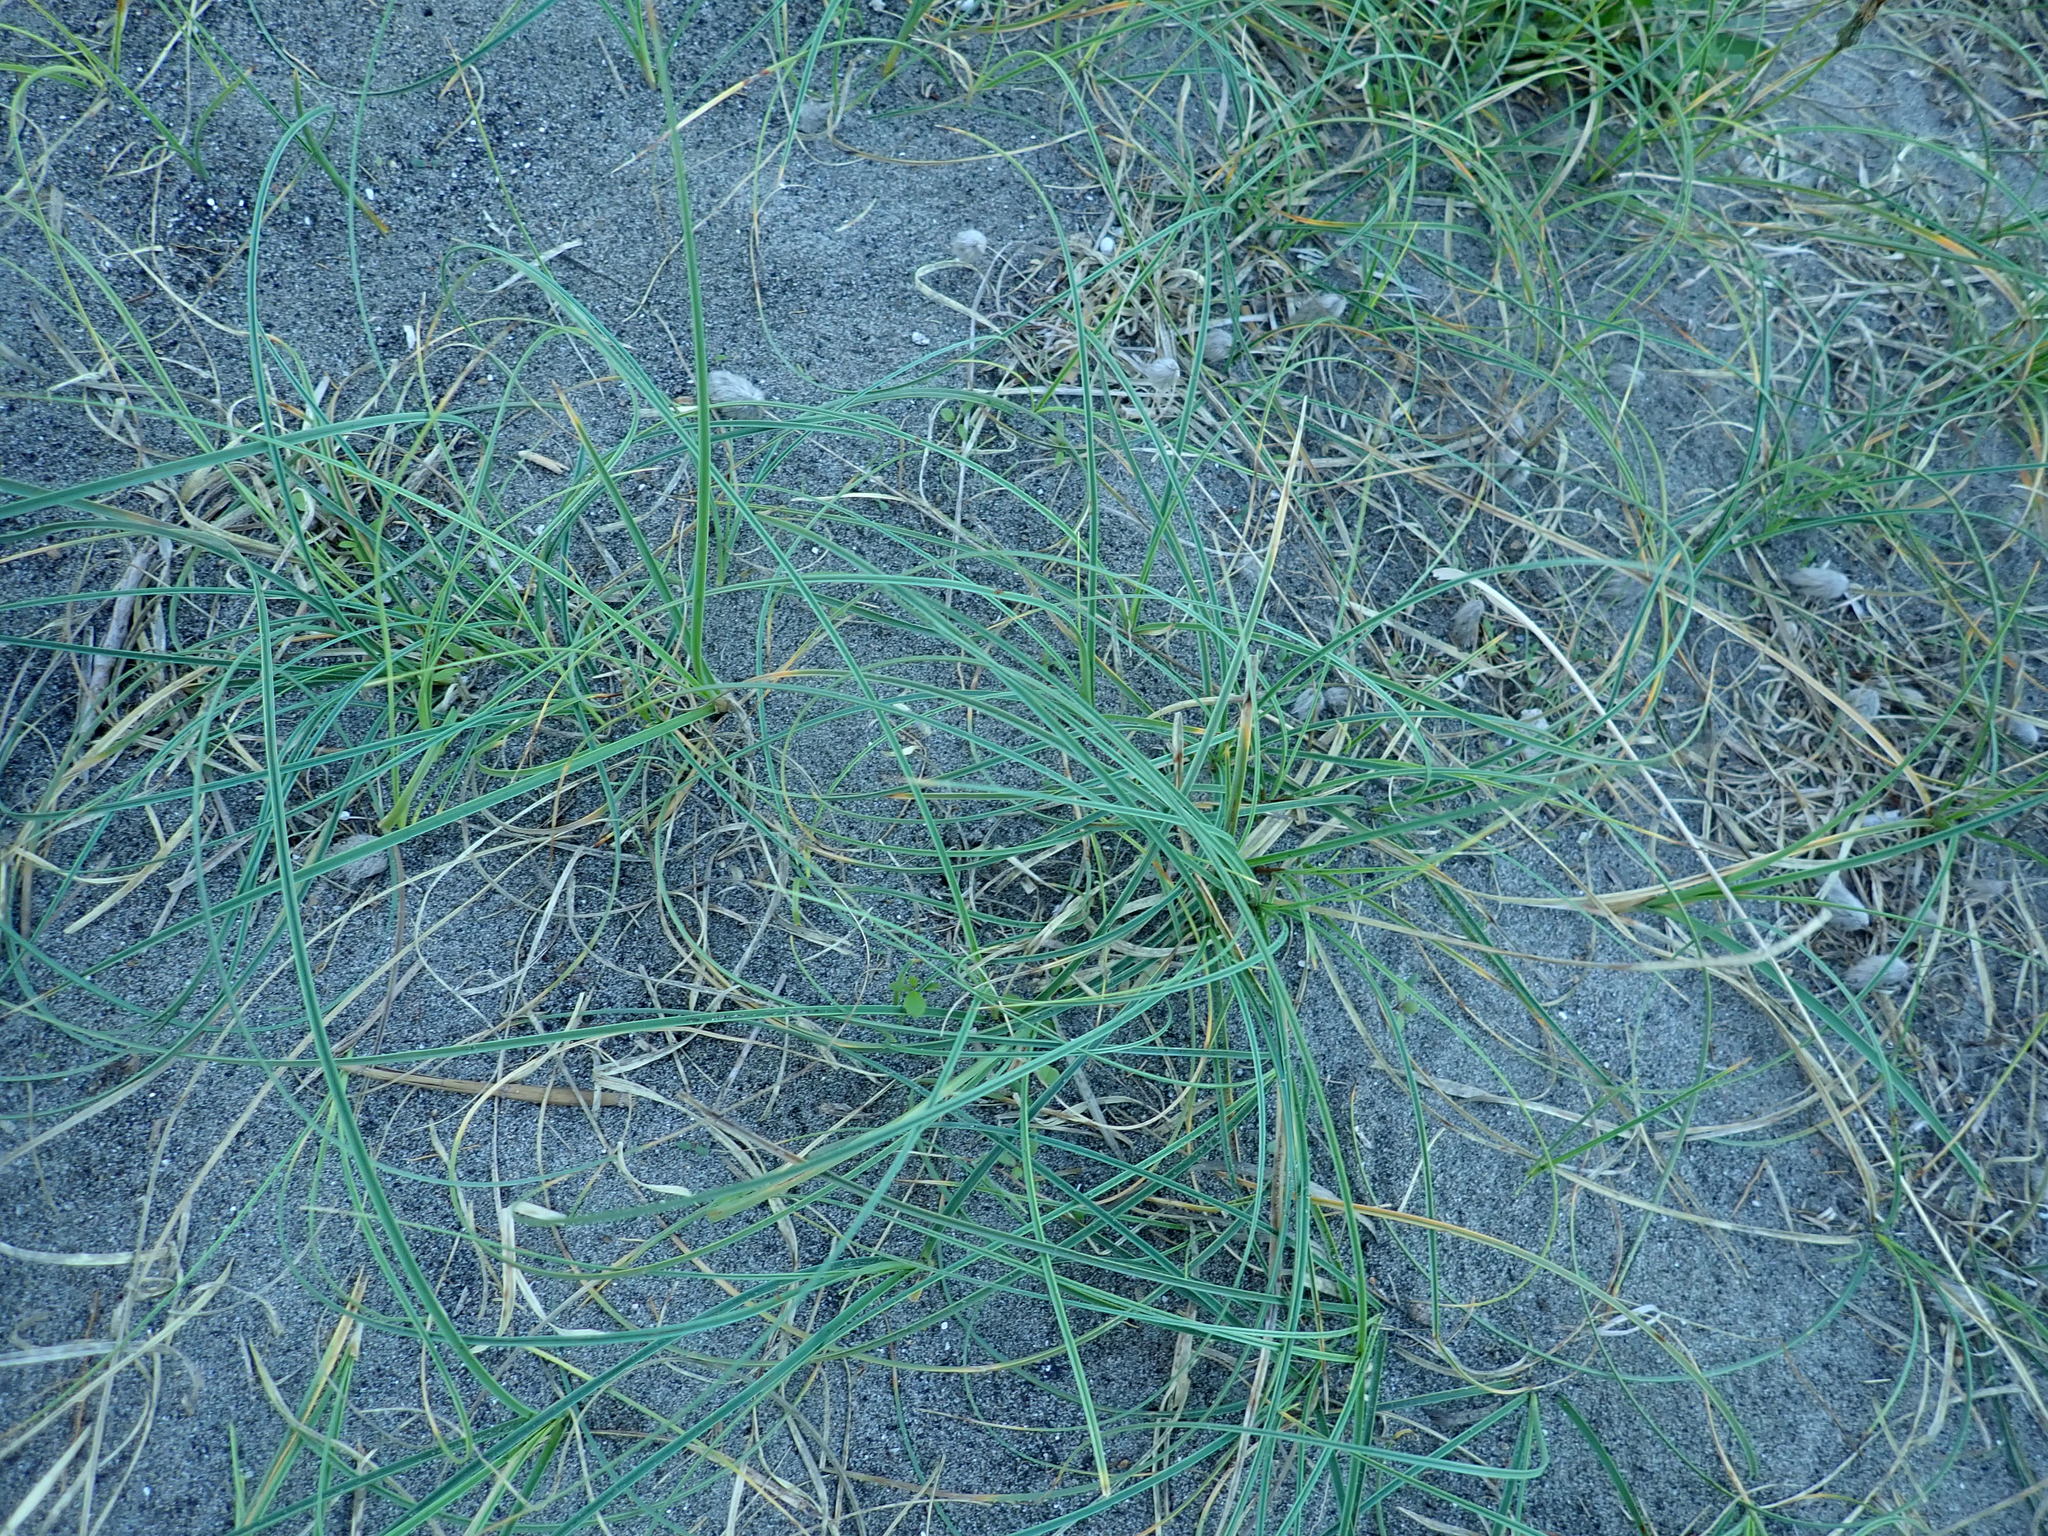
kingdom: Plantae
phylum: Tracheophyta
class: Liliopsida
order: Poales
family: Cyperaceae
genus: Carex
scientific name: Carex pumila
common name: Dwarf sedge
